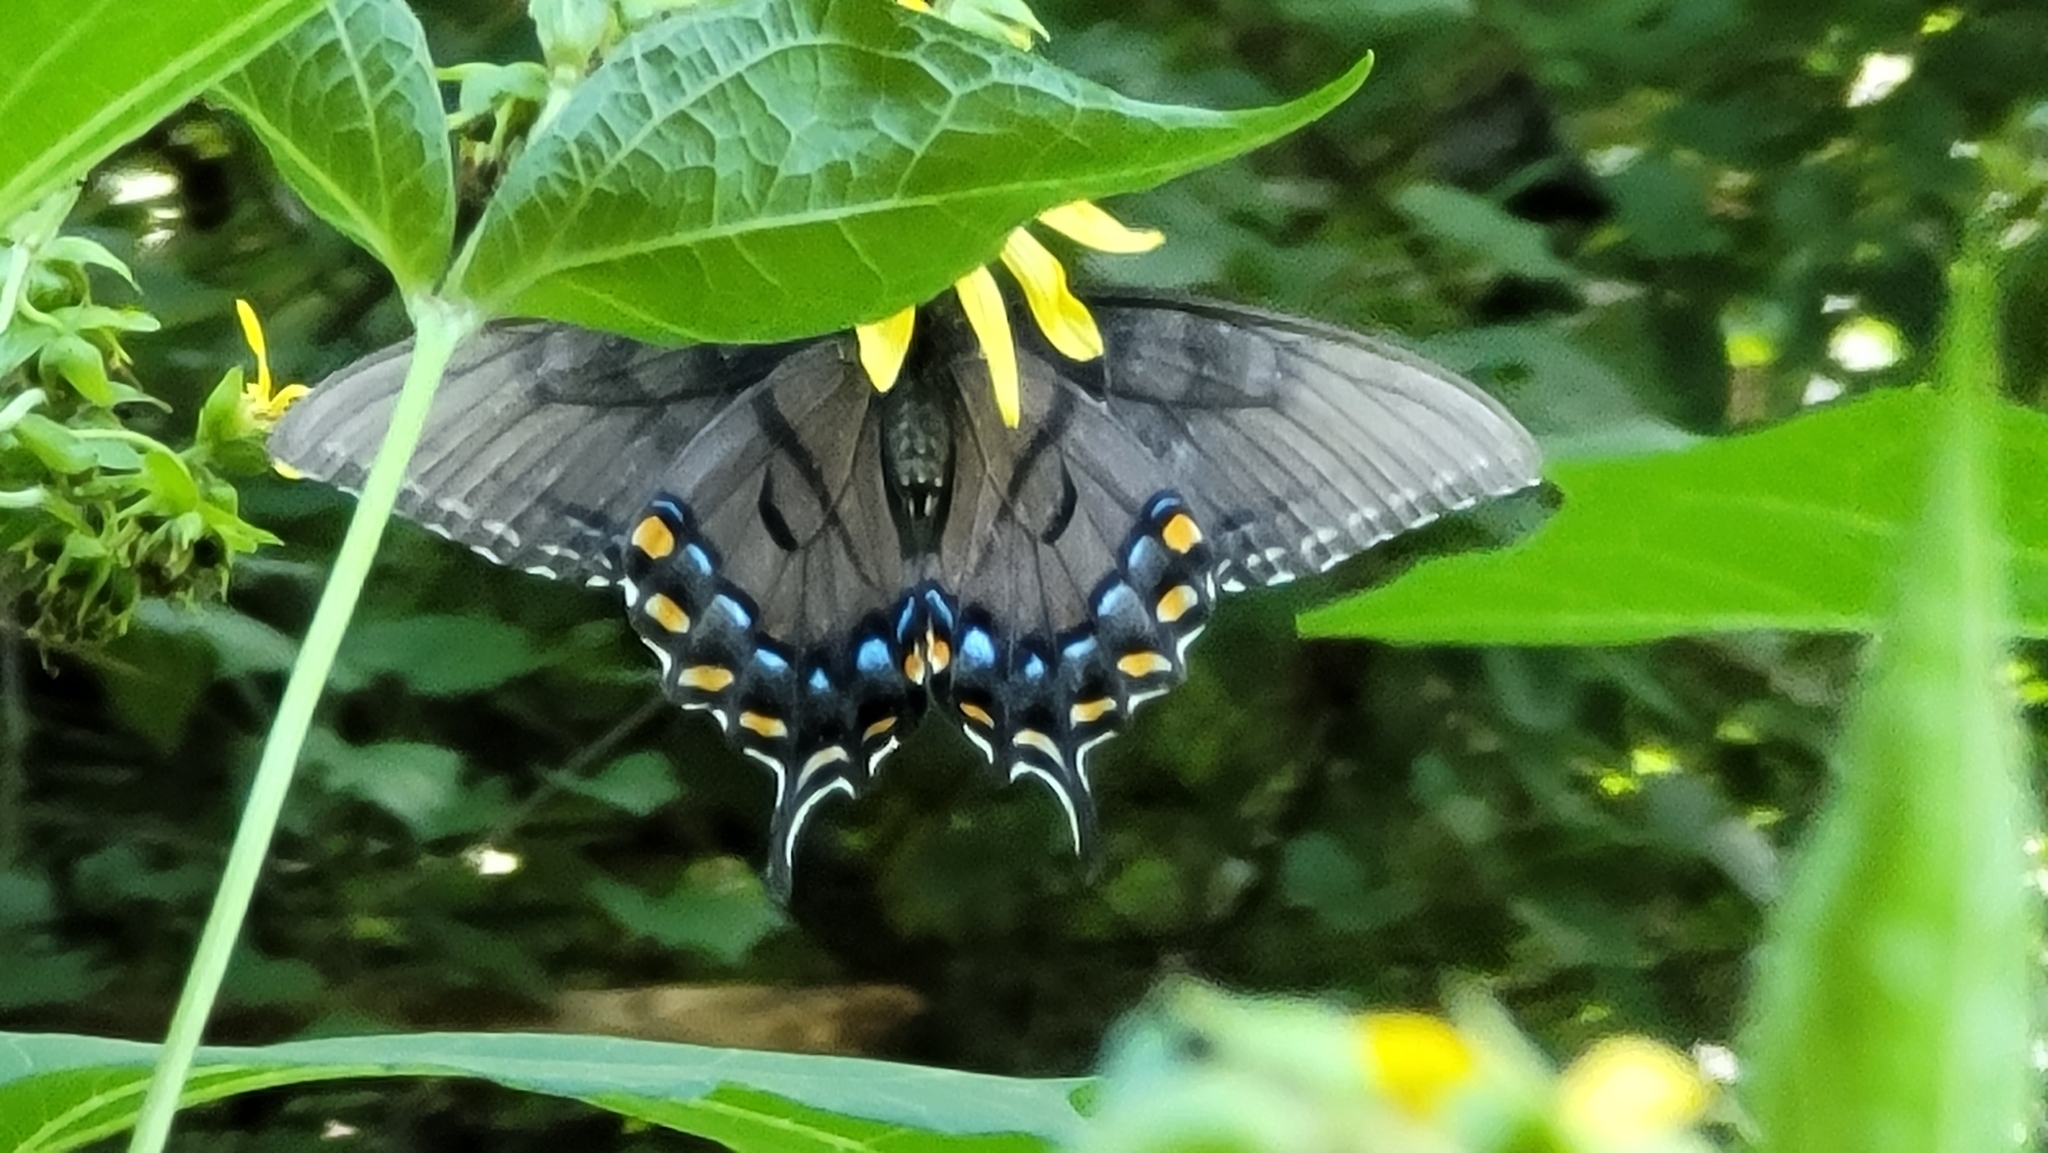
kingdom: Animalia
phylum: Arthropoda
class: Insecta
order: Lepidoptera
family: Papilionidae
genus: Papilio
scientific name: Papilio glaucus
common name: Tiger swallowtail
